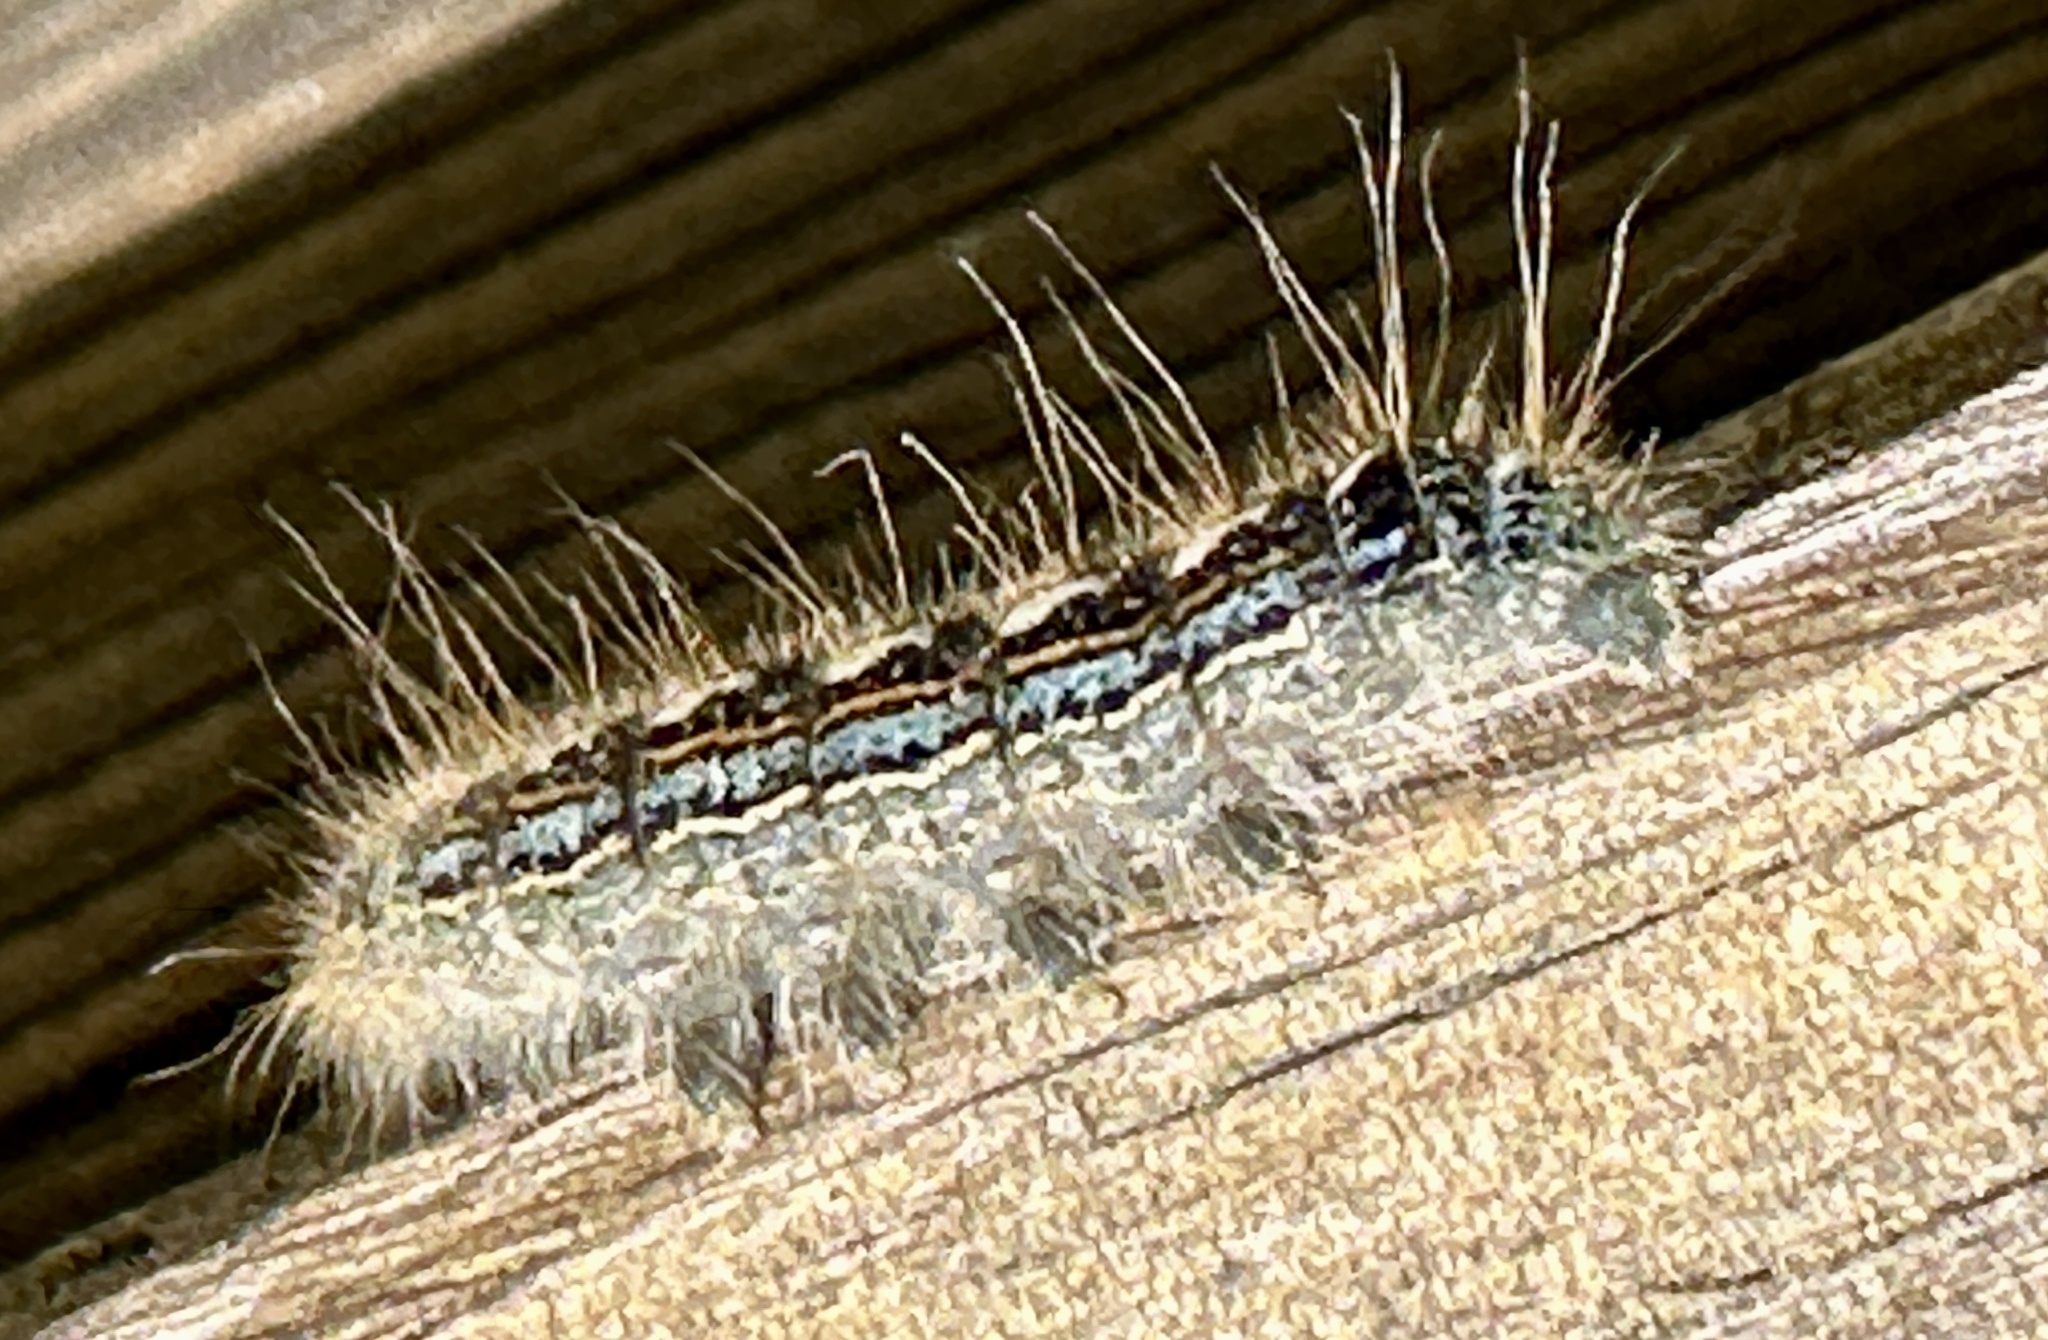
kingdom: Animalia
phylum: Arthropoda
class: Insecta
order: Lepidoptera
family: Lasiocampidae
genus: Malacosoma
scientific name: Malacosoma disstria
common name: Forest tent caterpillar
